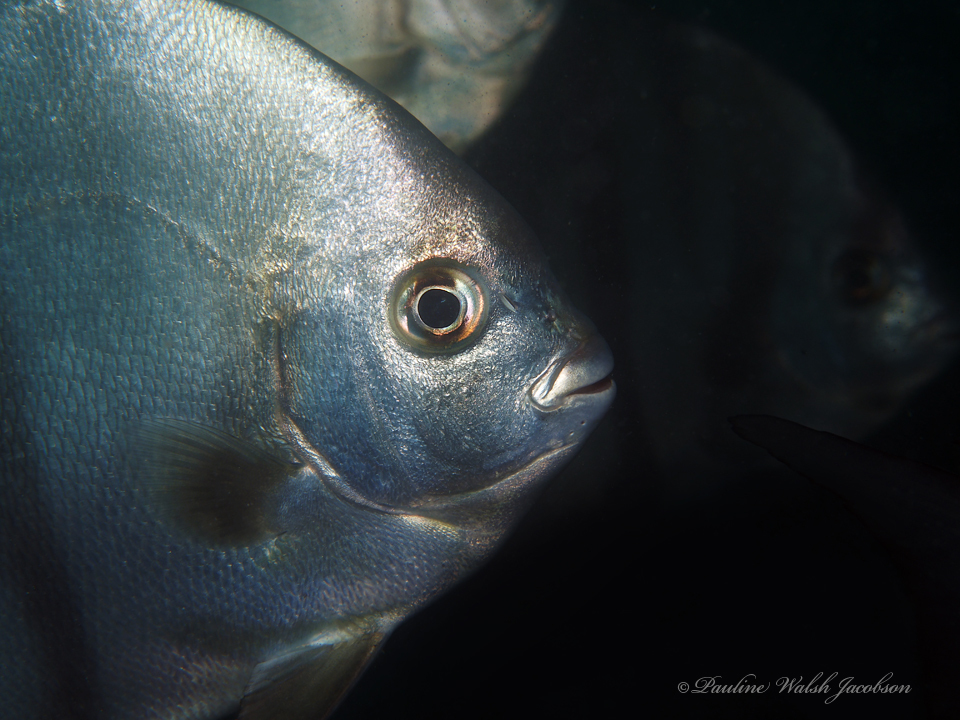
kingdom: Animalia
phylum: Chordata
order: Perciformes
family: Ephippidae
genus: Chaetodipterus
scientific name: Chaetodipterus faber
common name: Ocean cobbler
